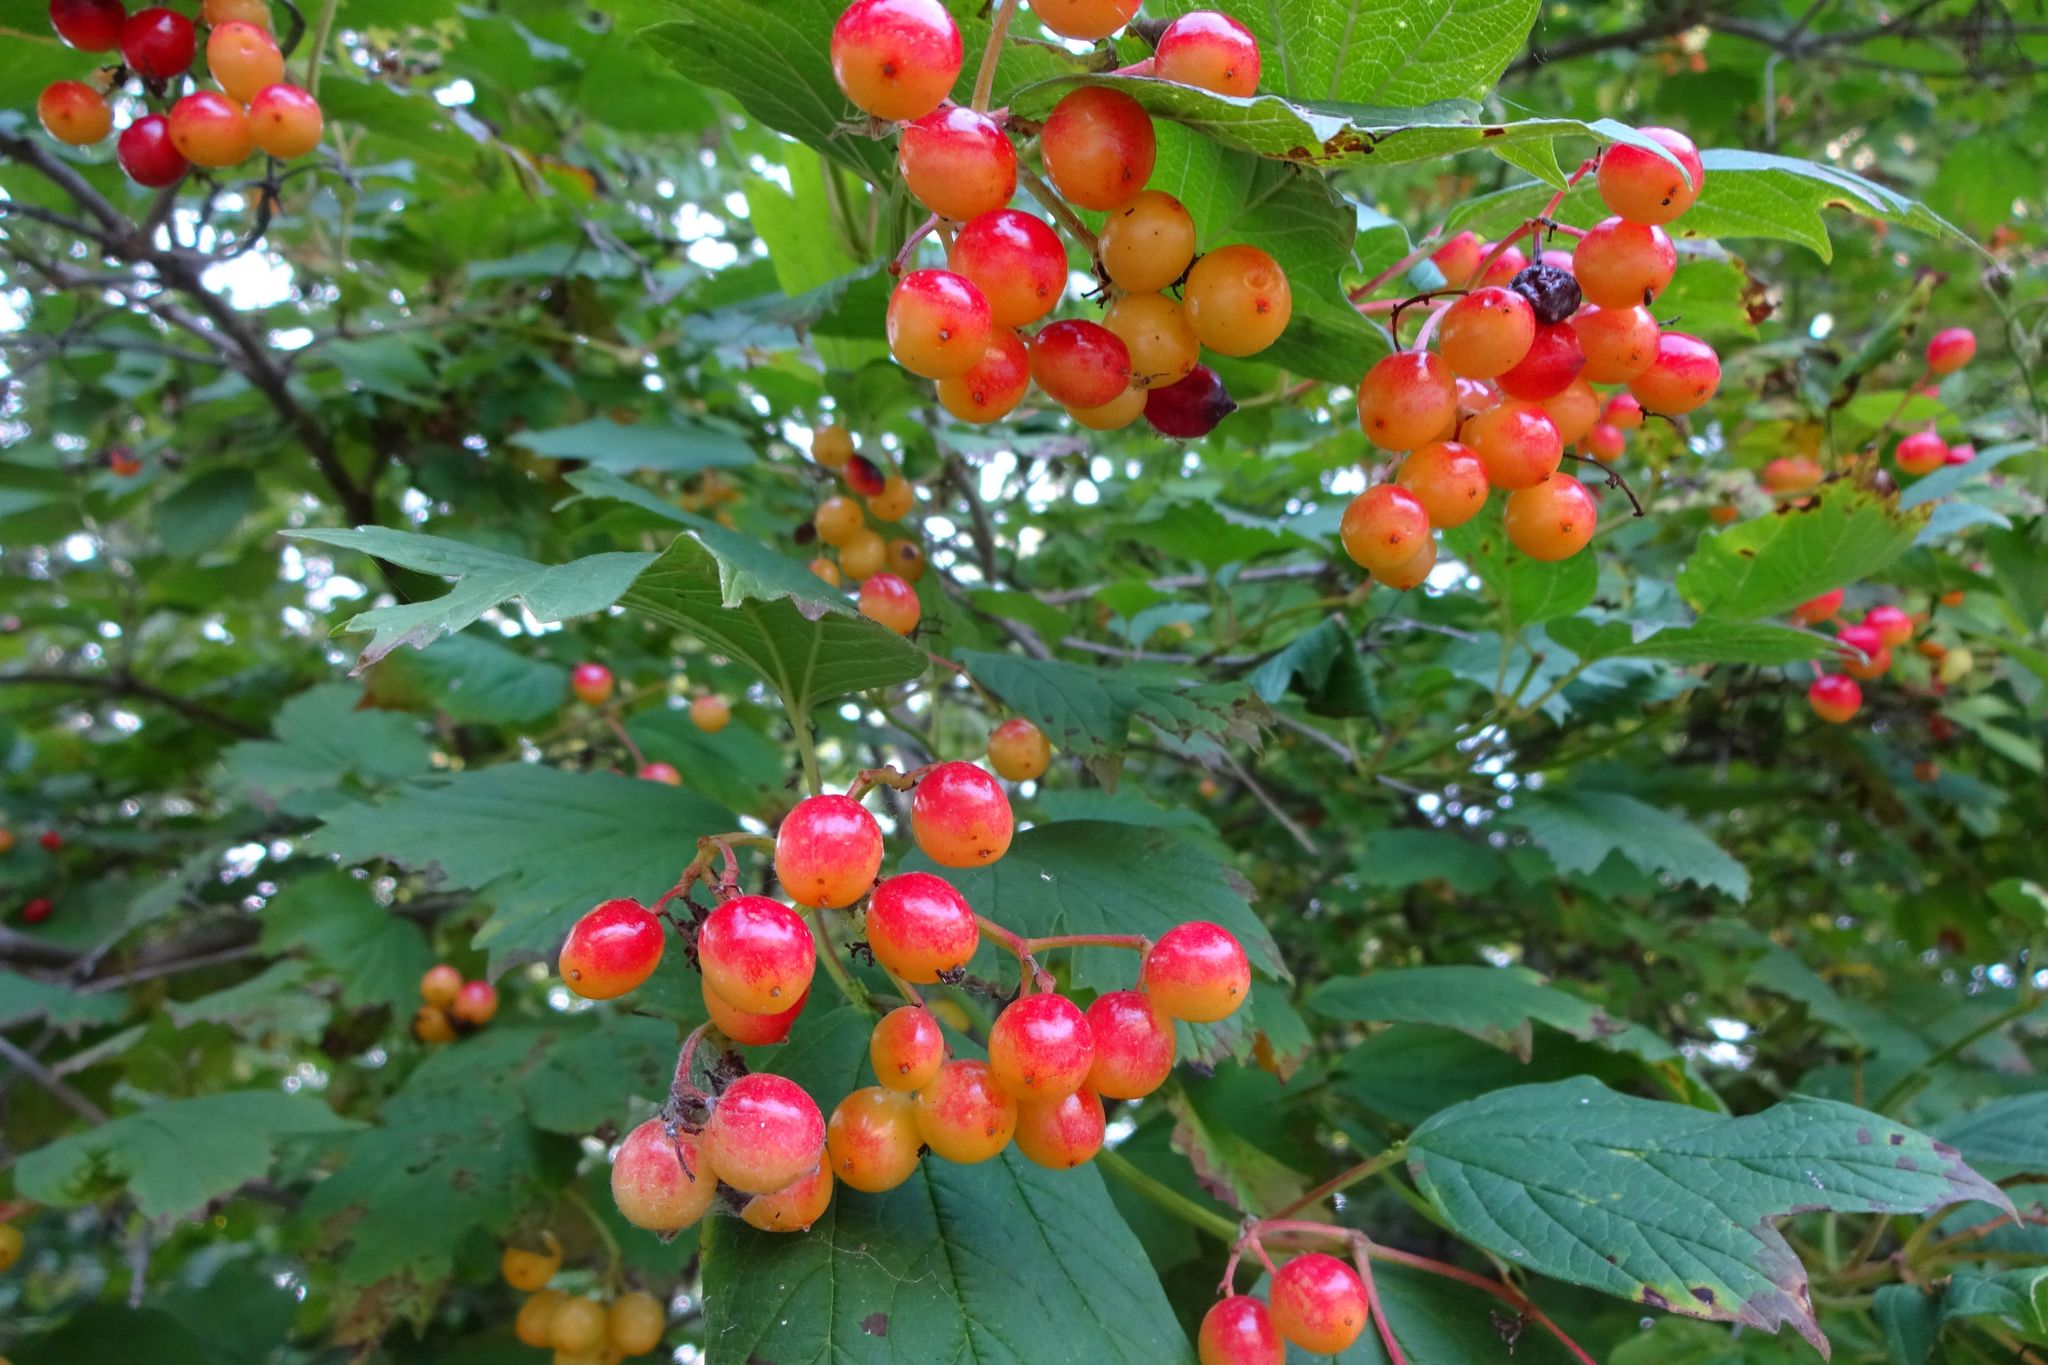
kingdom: Plantae
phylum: Tracheophyta
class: Magnoliopsida
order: Dipsacales
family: Viburnaceae
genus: Viburnum
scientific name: Viburnum opulus
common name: Guelder-rose
